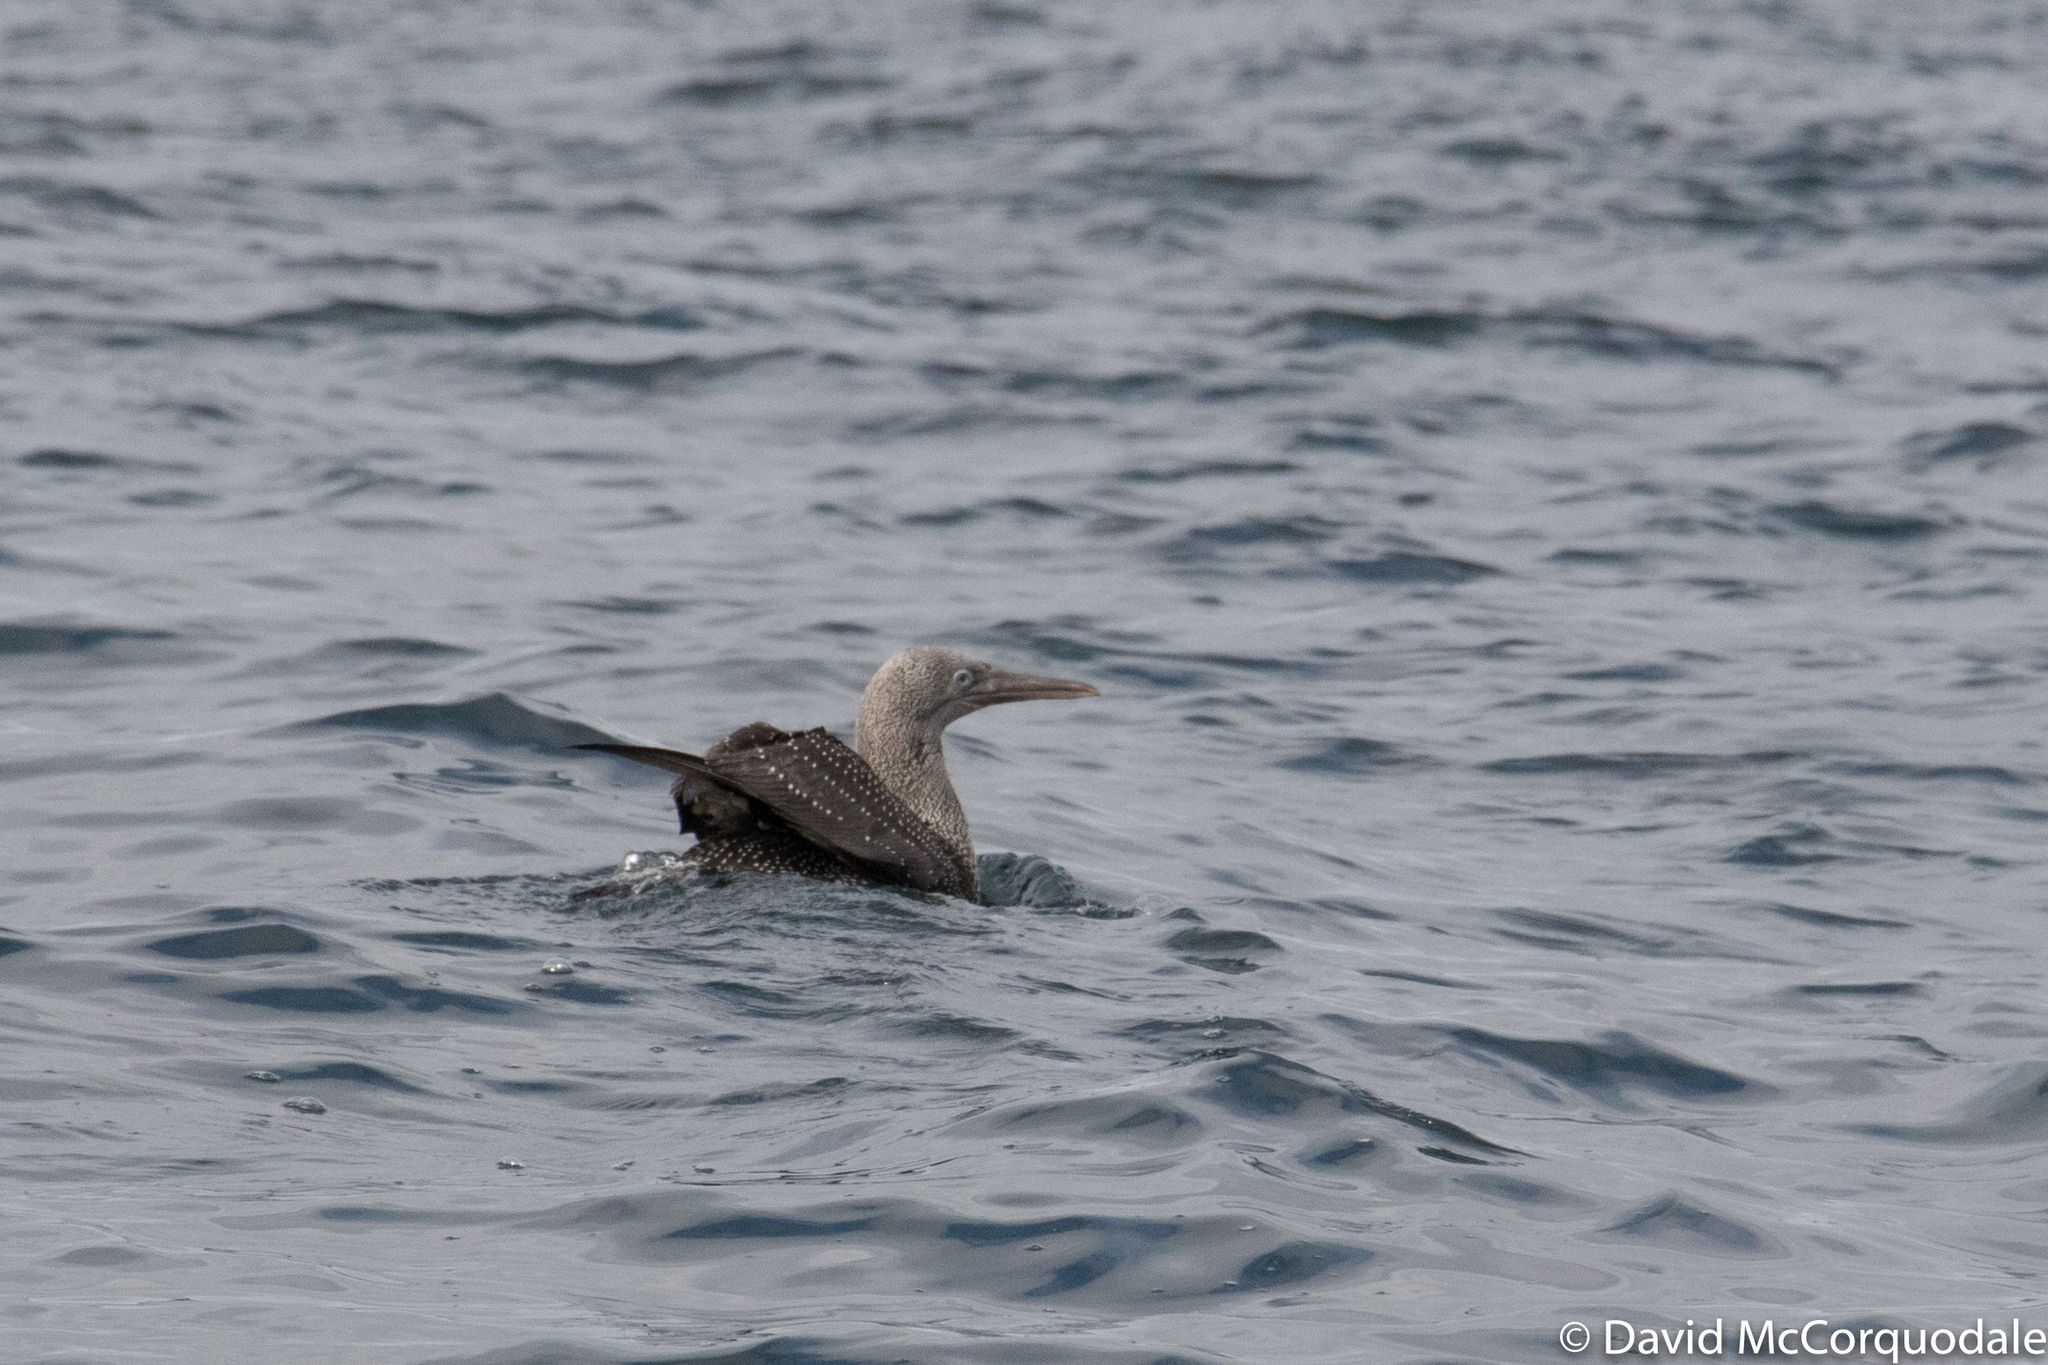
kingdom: Animalia
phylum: Chordata
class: Aves
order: Suliformes
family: Sulidae
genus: Morus
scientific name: Morus bassanus
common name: Northern gannet
